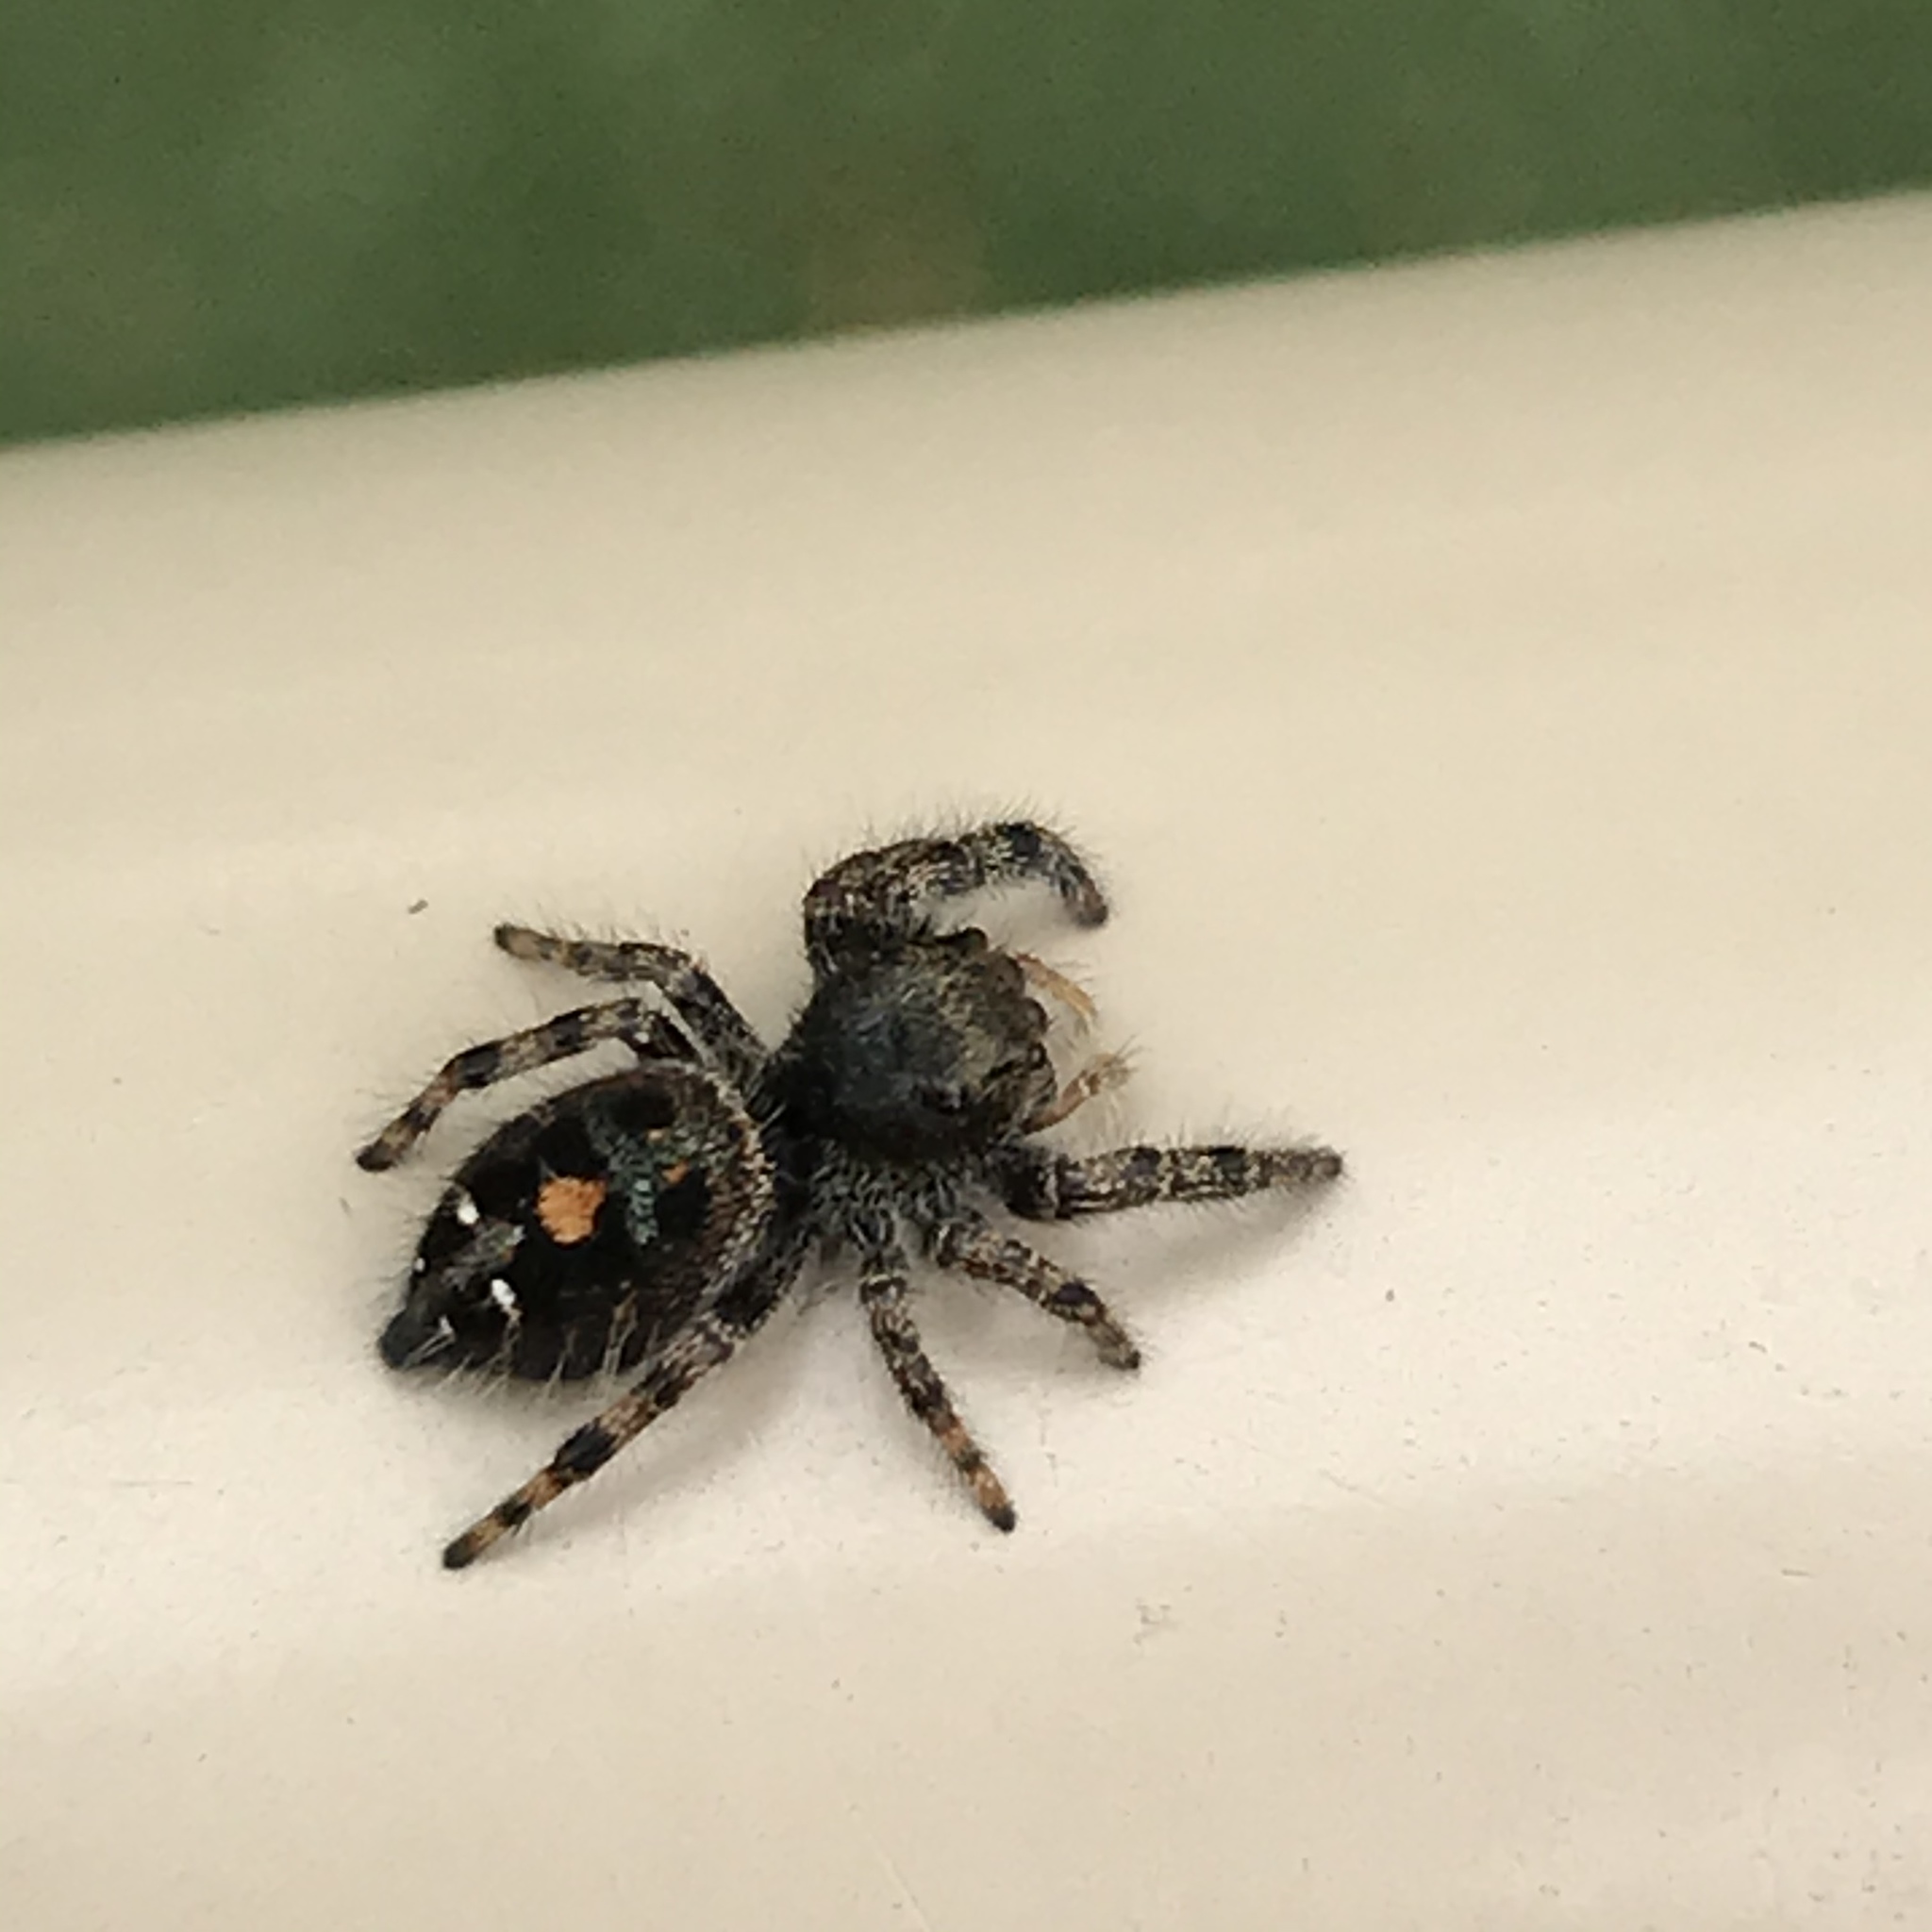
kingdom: Animalia
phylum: Arthropoda
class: Arachnida
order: Araneae
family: Salticidae
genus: Phidippus
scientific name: Phidippus audax
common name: Bold jumper
